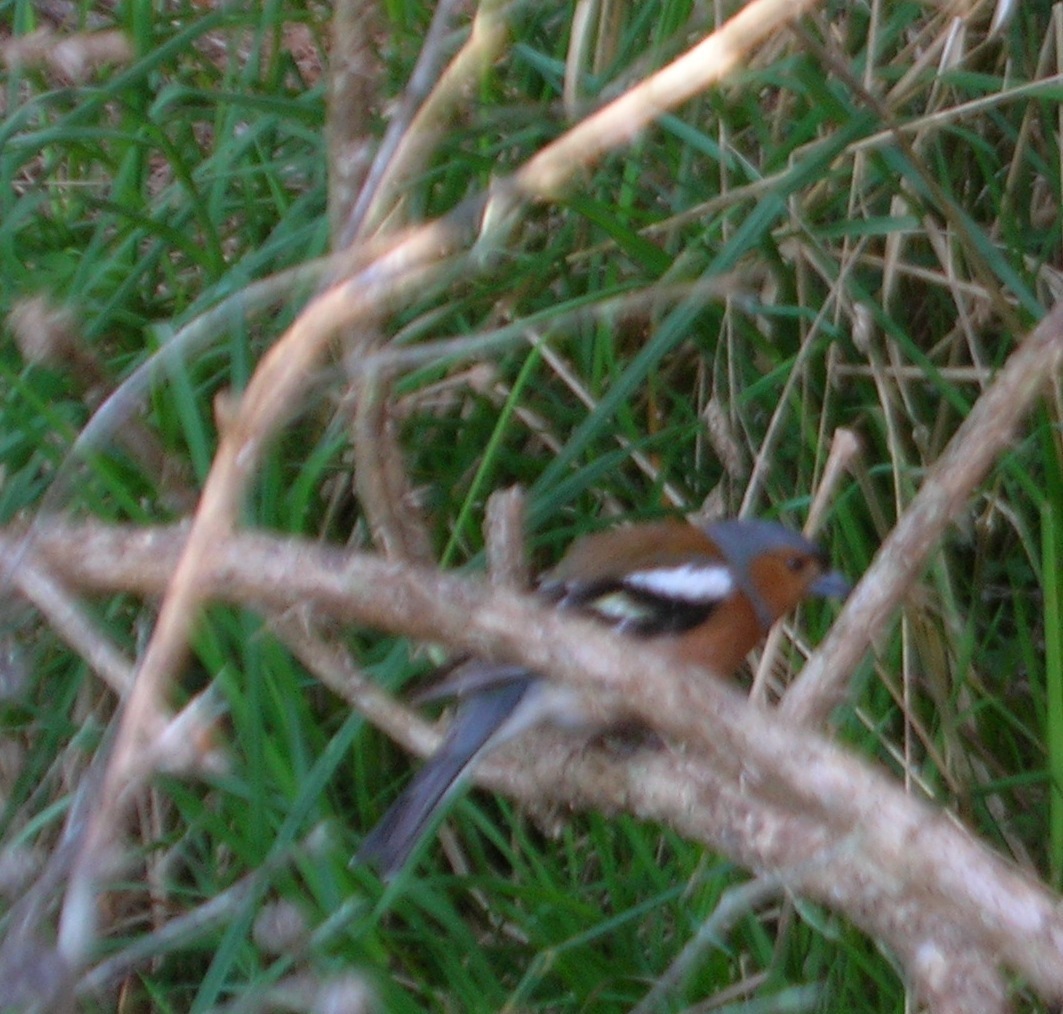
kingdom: Animalia
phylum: Chordata
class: Aves
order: Passeriformes
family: Fringillidae
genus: Fringilla
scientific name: Fringilla coelebs
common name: Common chaffinch
